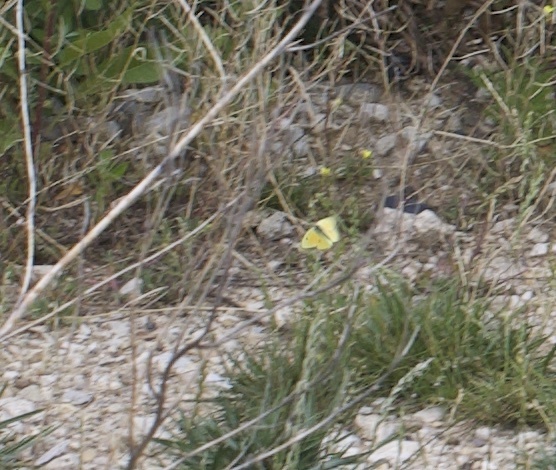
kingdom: Animalia
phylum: Arthropoda
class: Insecta
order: Lepidoptera
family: Pieridae
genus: Colias
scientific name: Colias philodice
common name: Clouded sulphur
